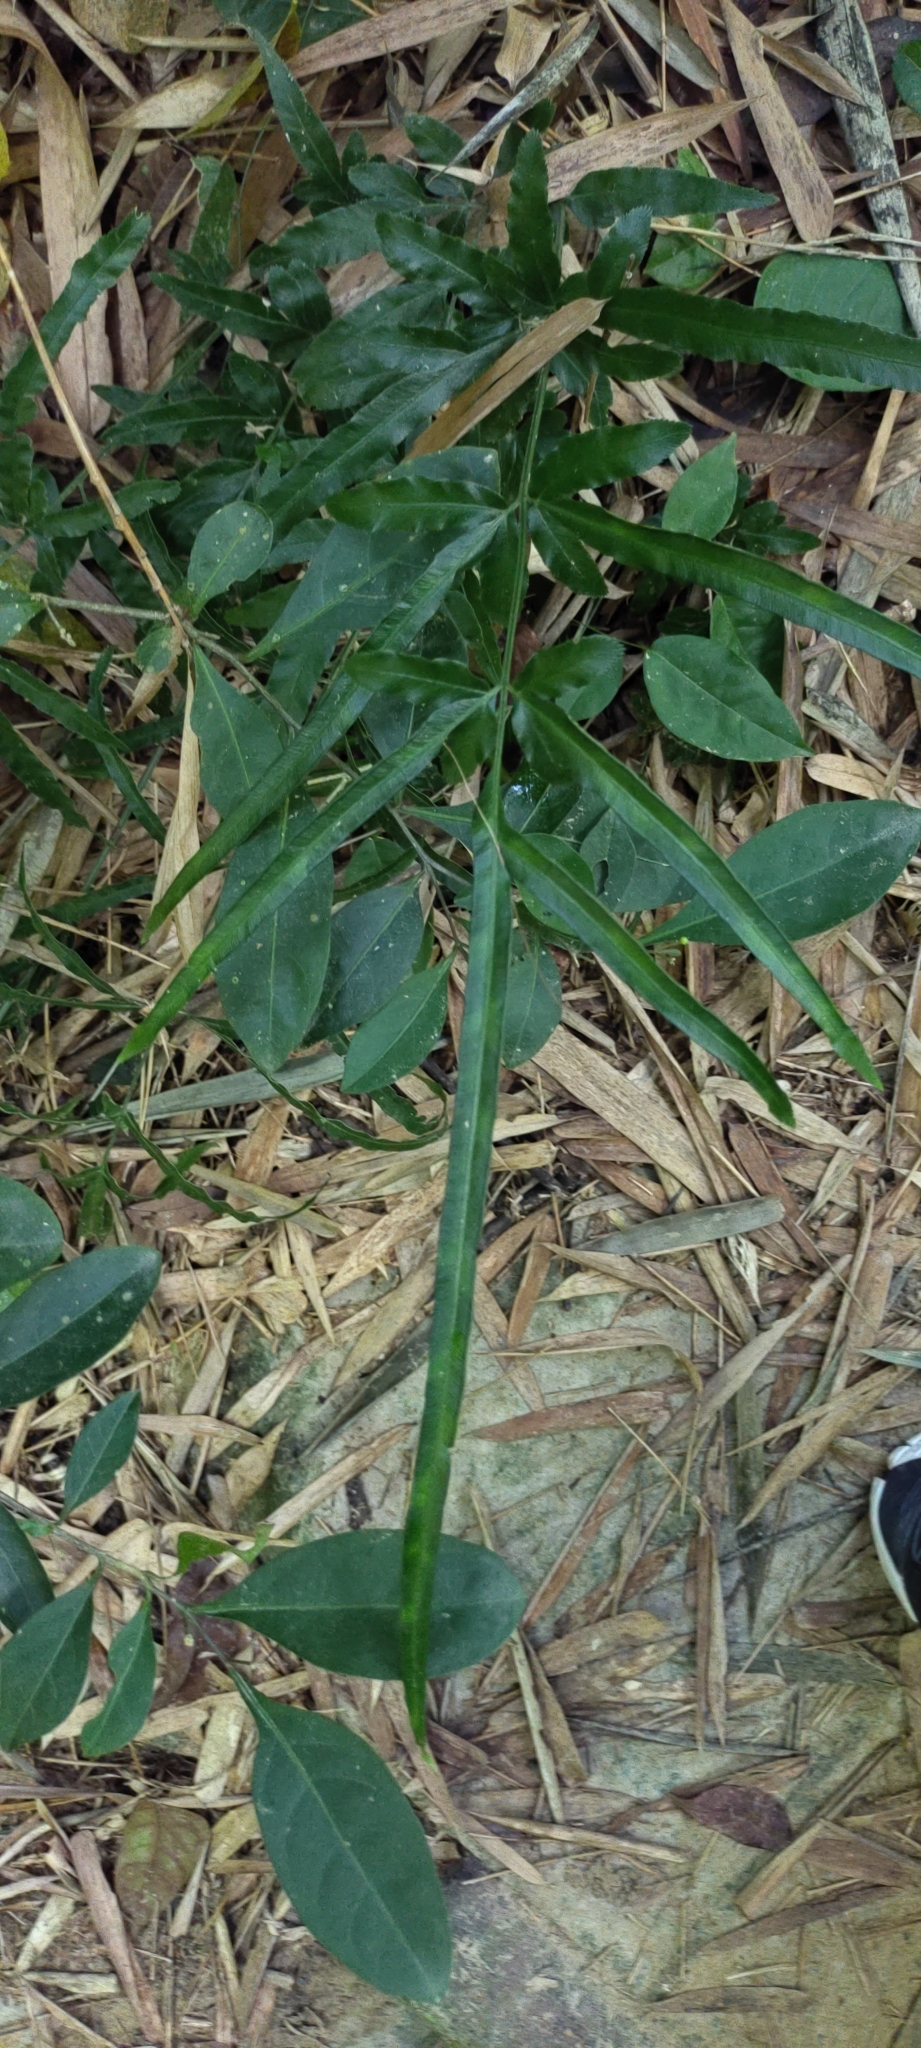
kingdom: Plantae
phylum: Tracheophyta
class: Polypodiopsida
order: Polypodiales
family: Pteridaceae
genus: Pteris
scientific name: Pteris ensiformis
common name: Sword brake
